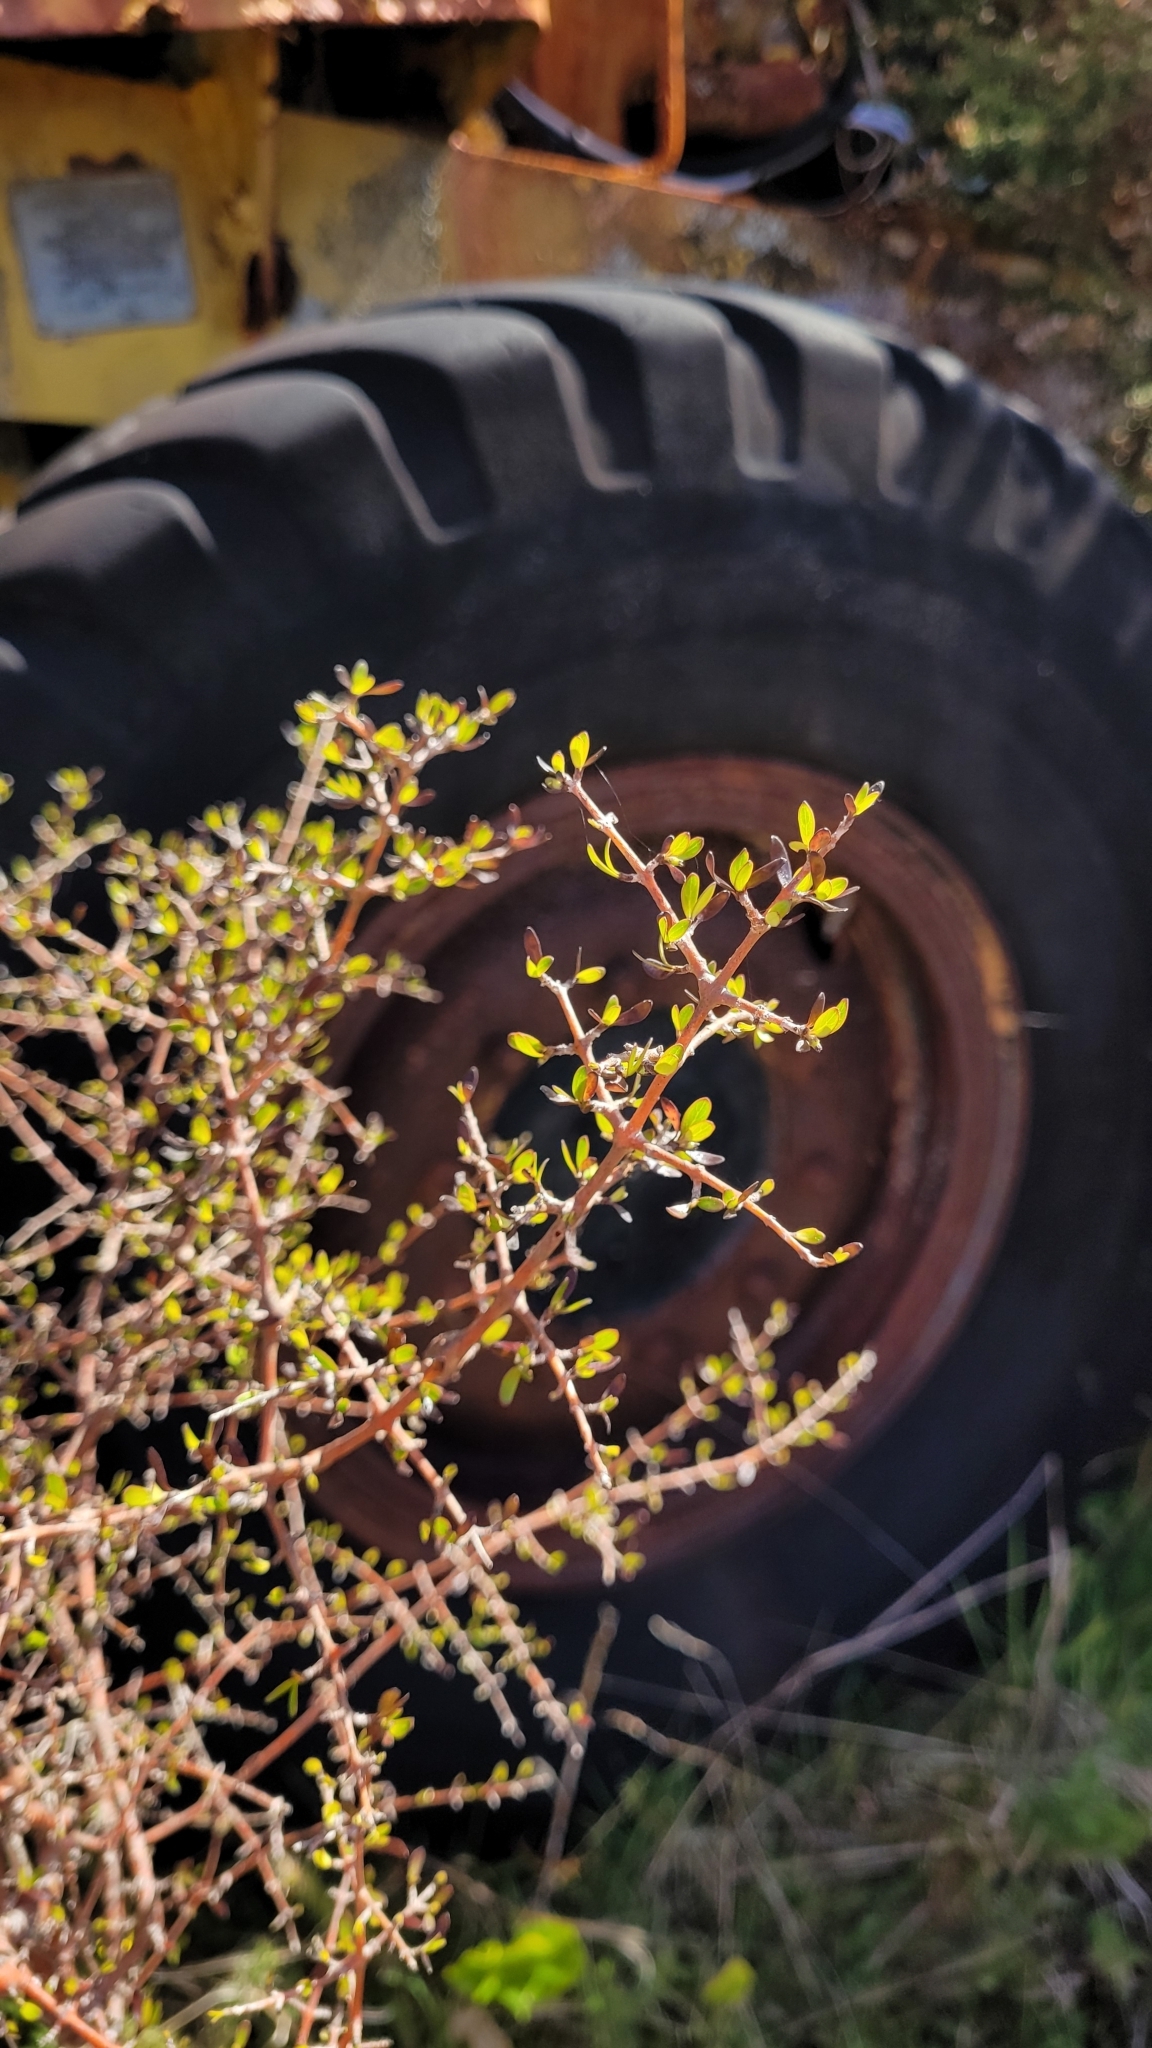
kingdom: Plantae
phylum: Tracheophyta
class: Magnoliopsida
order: Gentianales
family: Rubiaceae
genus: Coprosma
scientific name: Coprosma propinqua
